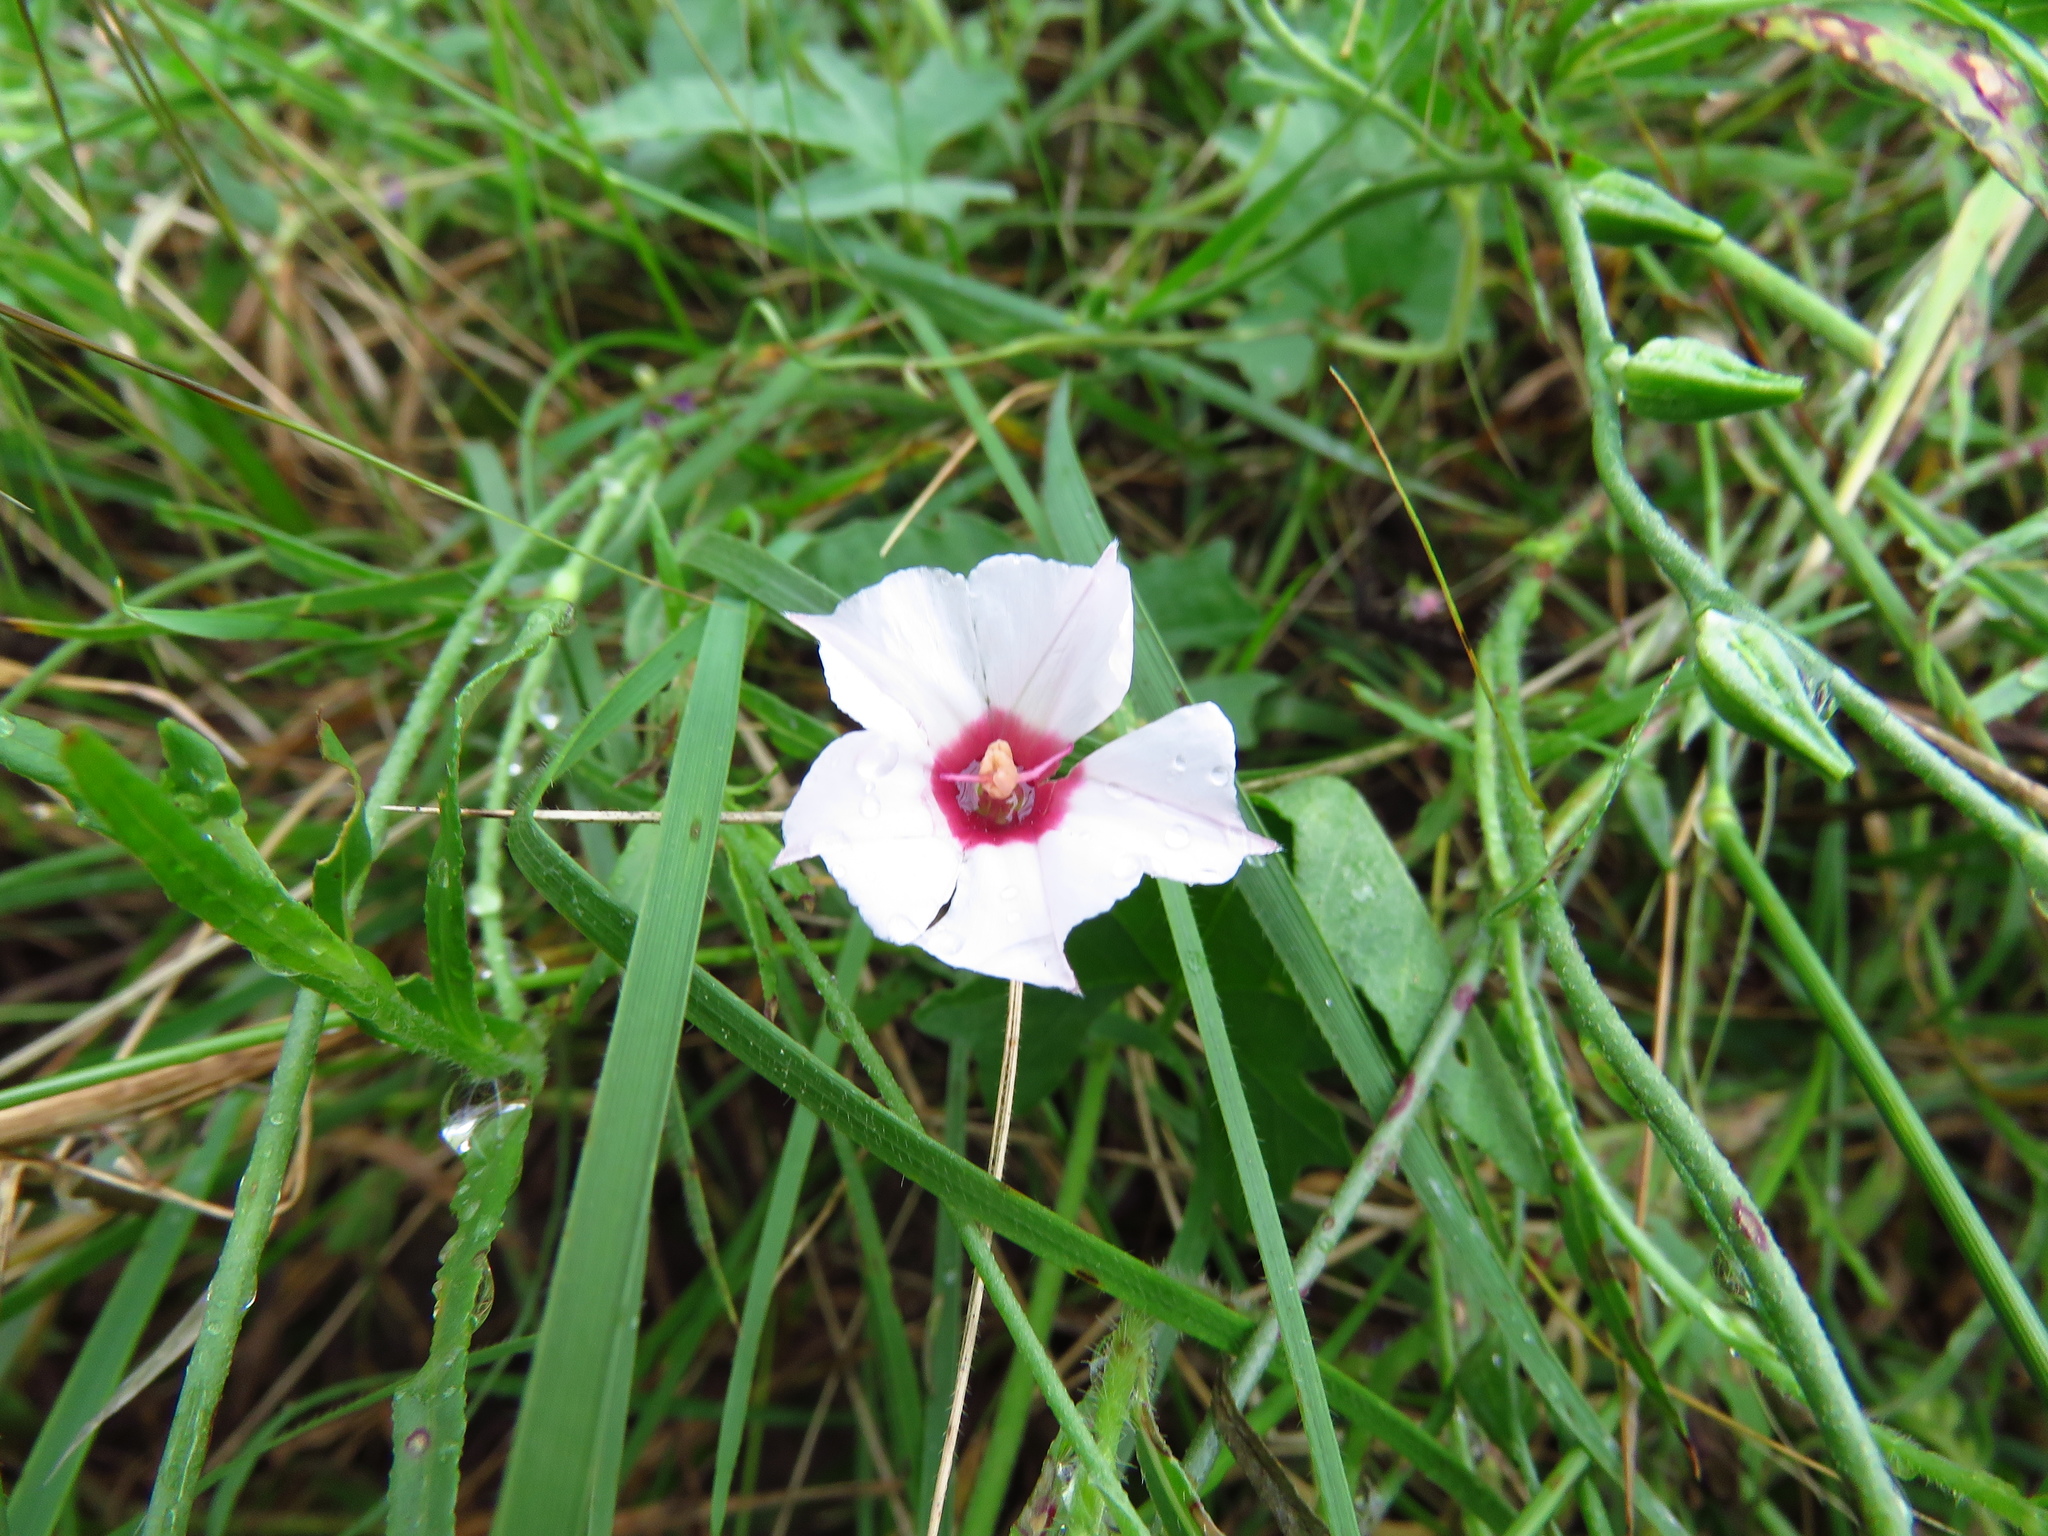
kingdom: Plantae
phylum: Tracheophyta
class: Magnoliopsida
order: Solanales
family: Convolvulaceae
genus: Convolvulus
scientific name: Convolvulus equitans
